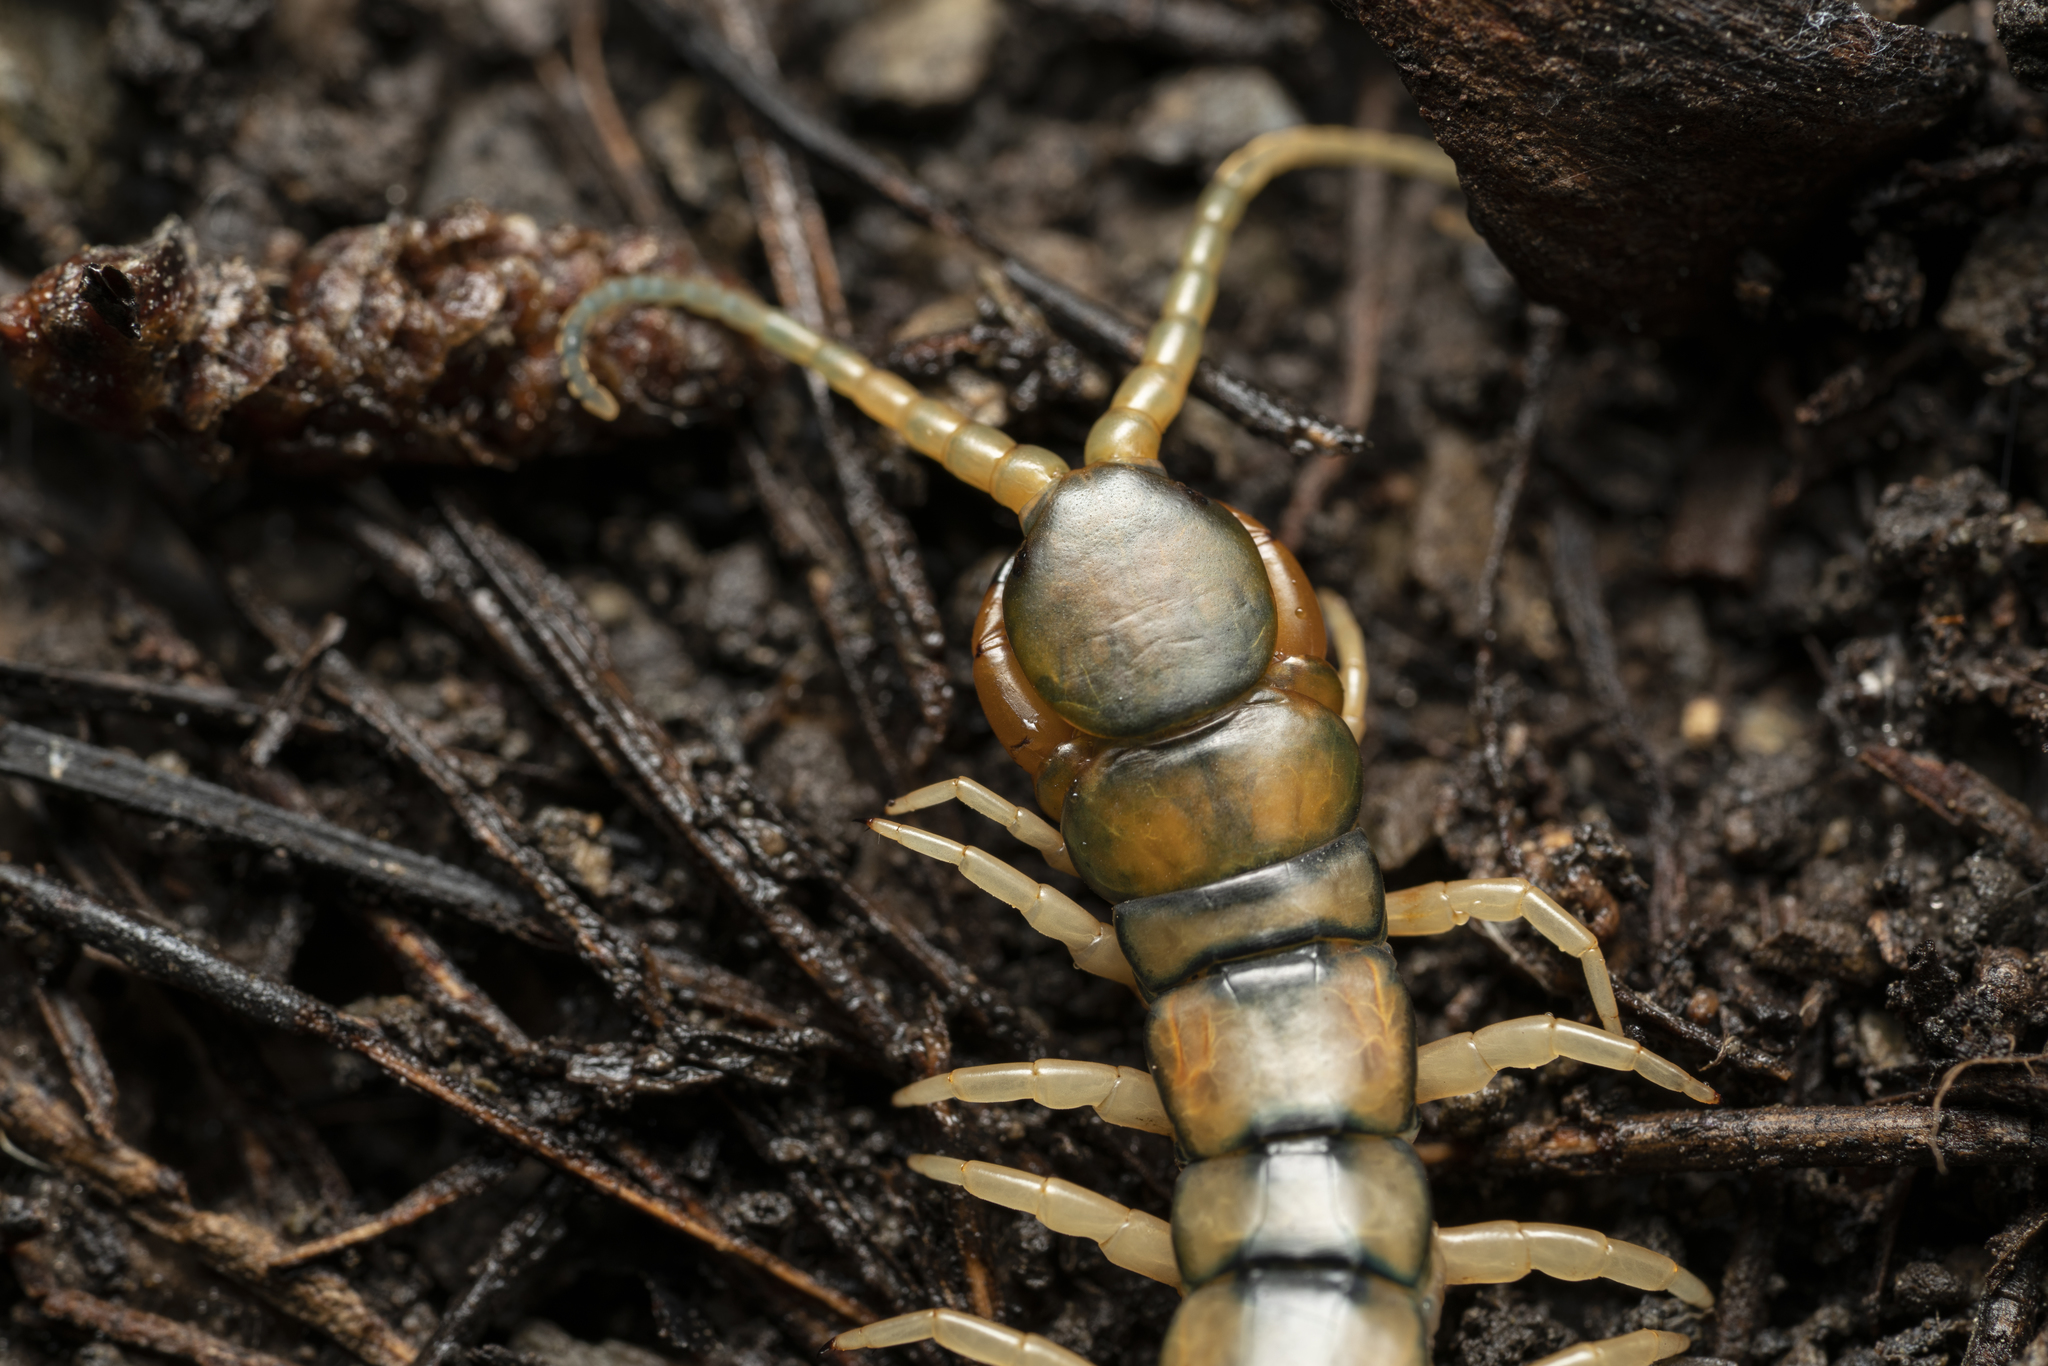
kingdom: Animalia
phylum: Arthropoda
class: Chilopoda
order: Scolopendromorpha
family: Scolopendridae
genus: Scolopendra
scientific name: Scolopendra cingulata
